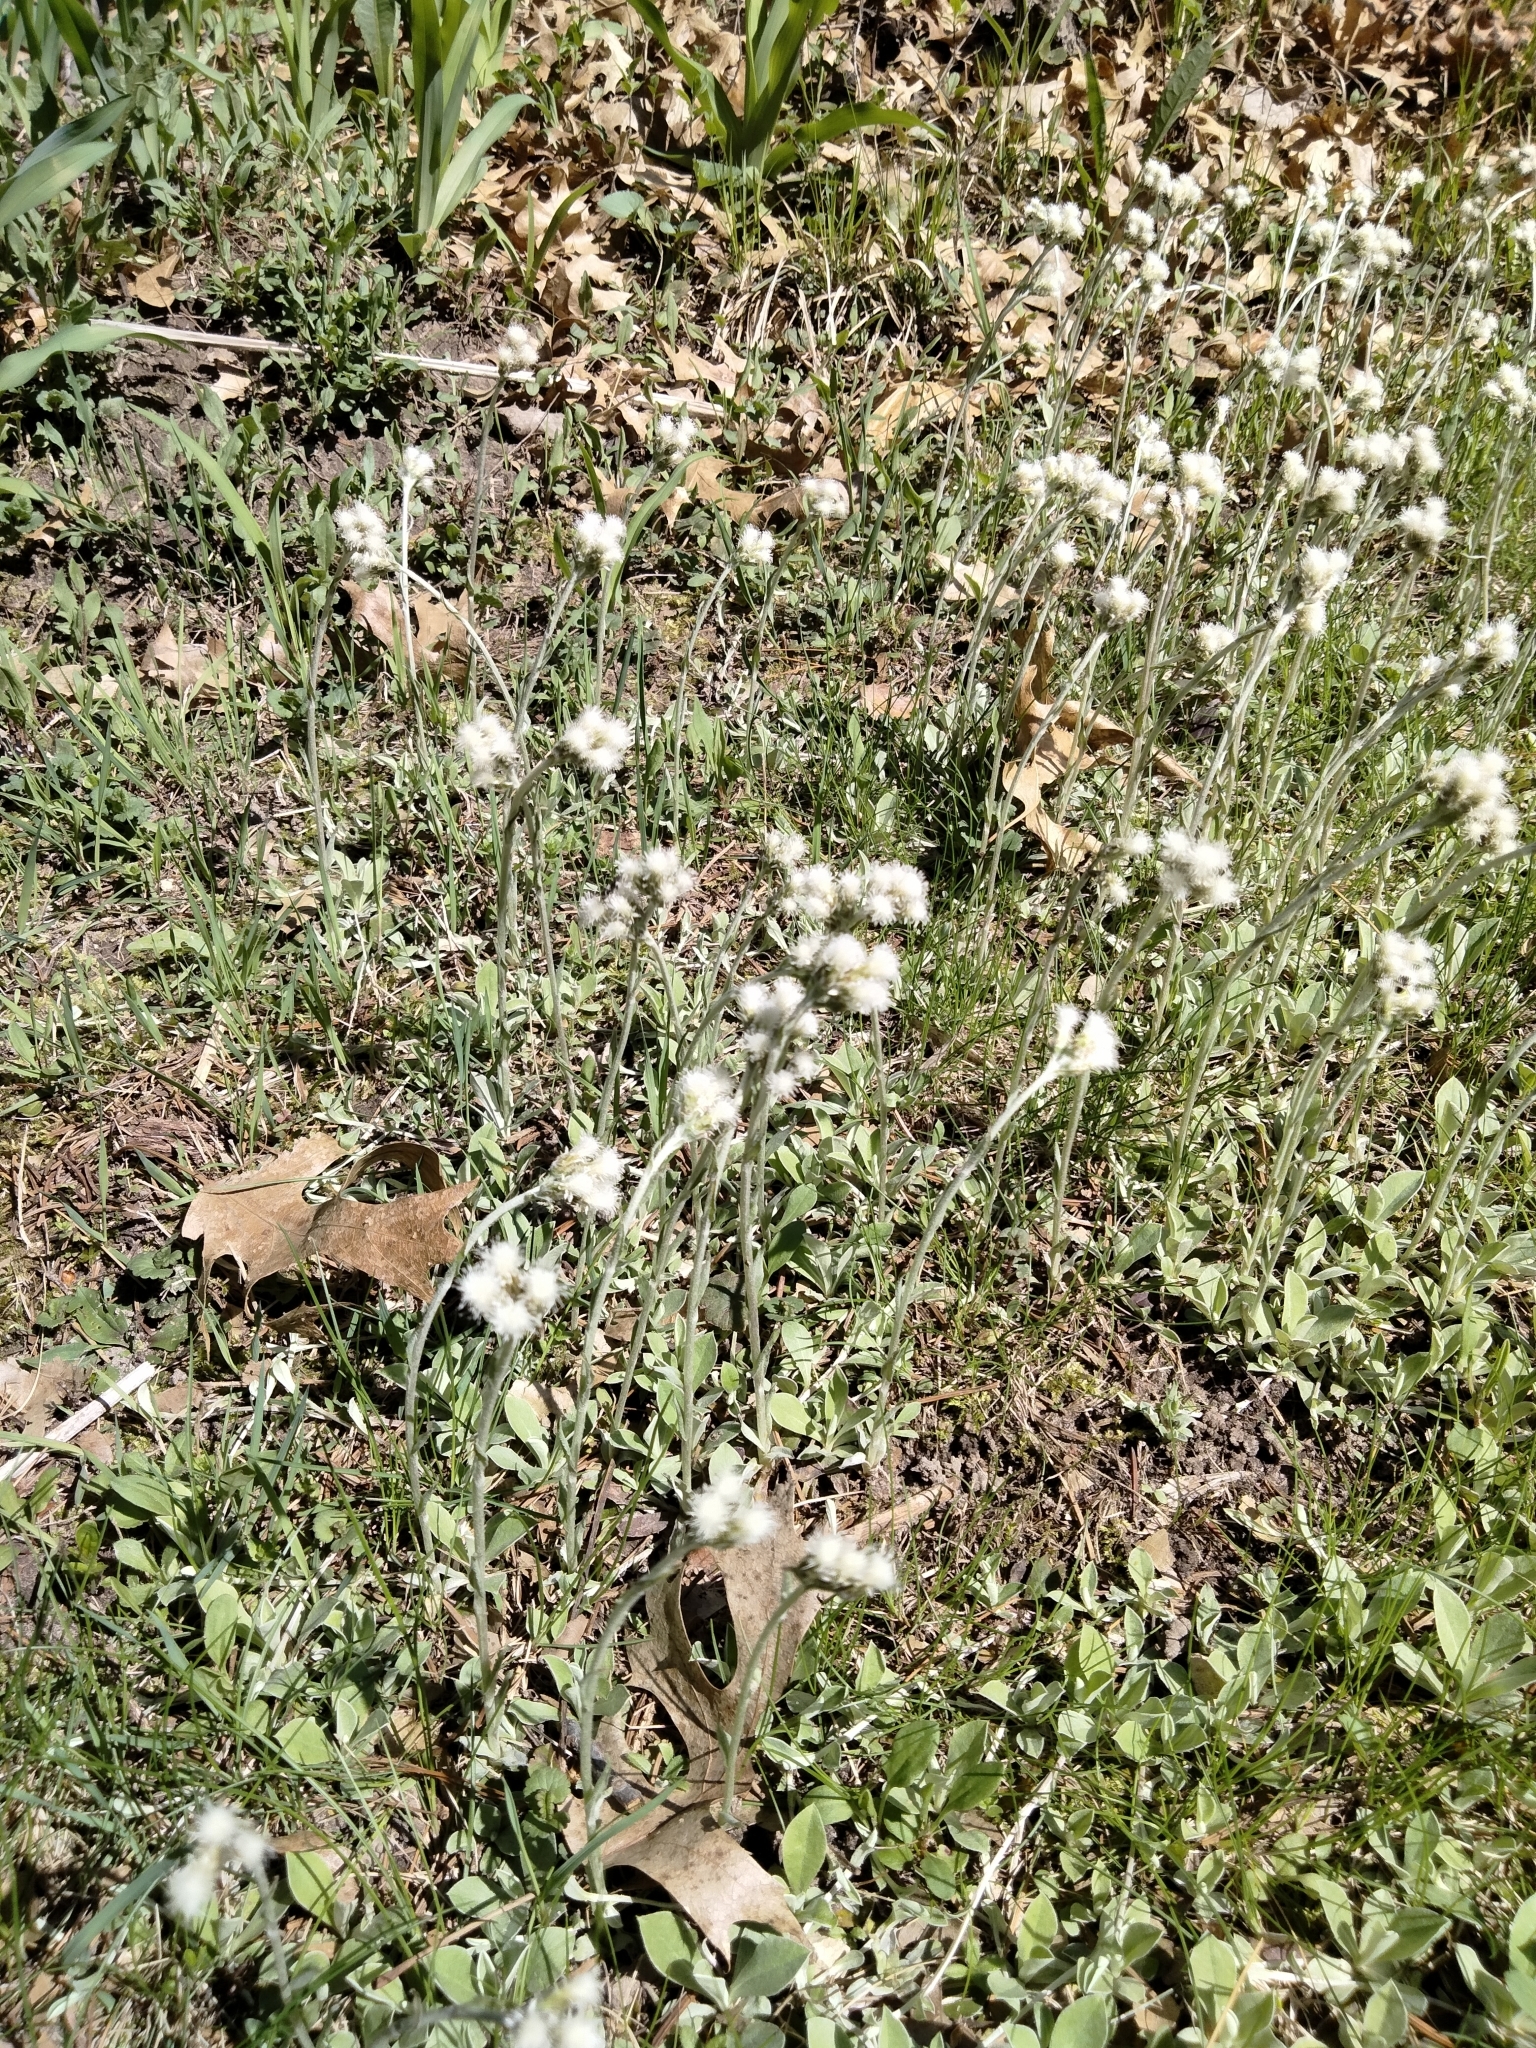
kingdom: Plantae
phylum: Tracheophyta
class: Magnoliopsida
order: Asterales
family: Asteraceae
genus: Antennaria
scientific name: Antennaria neglecta
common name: Field pussytoes
